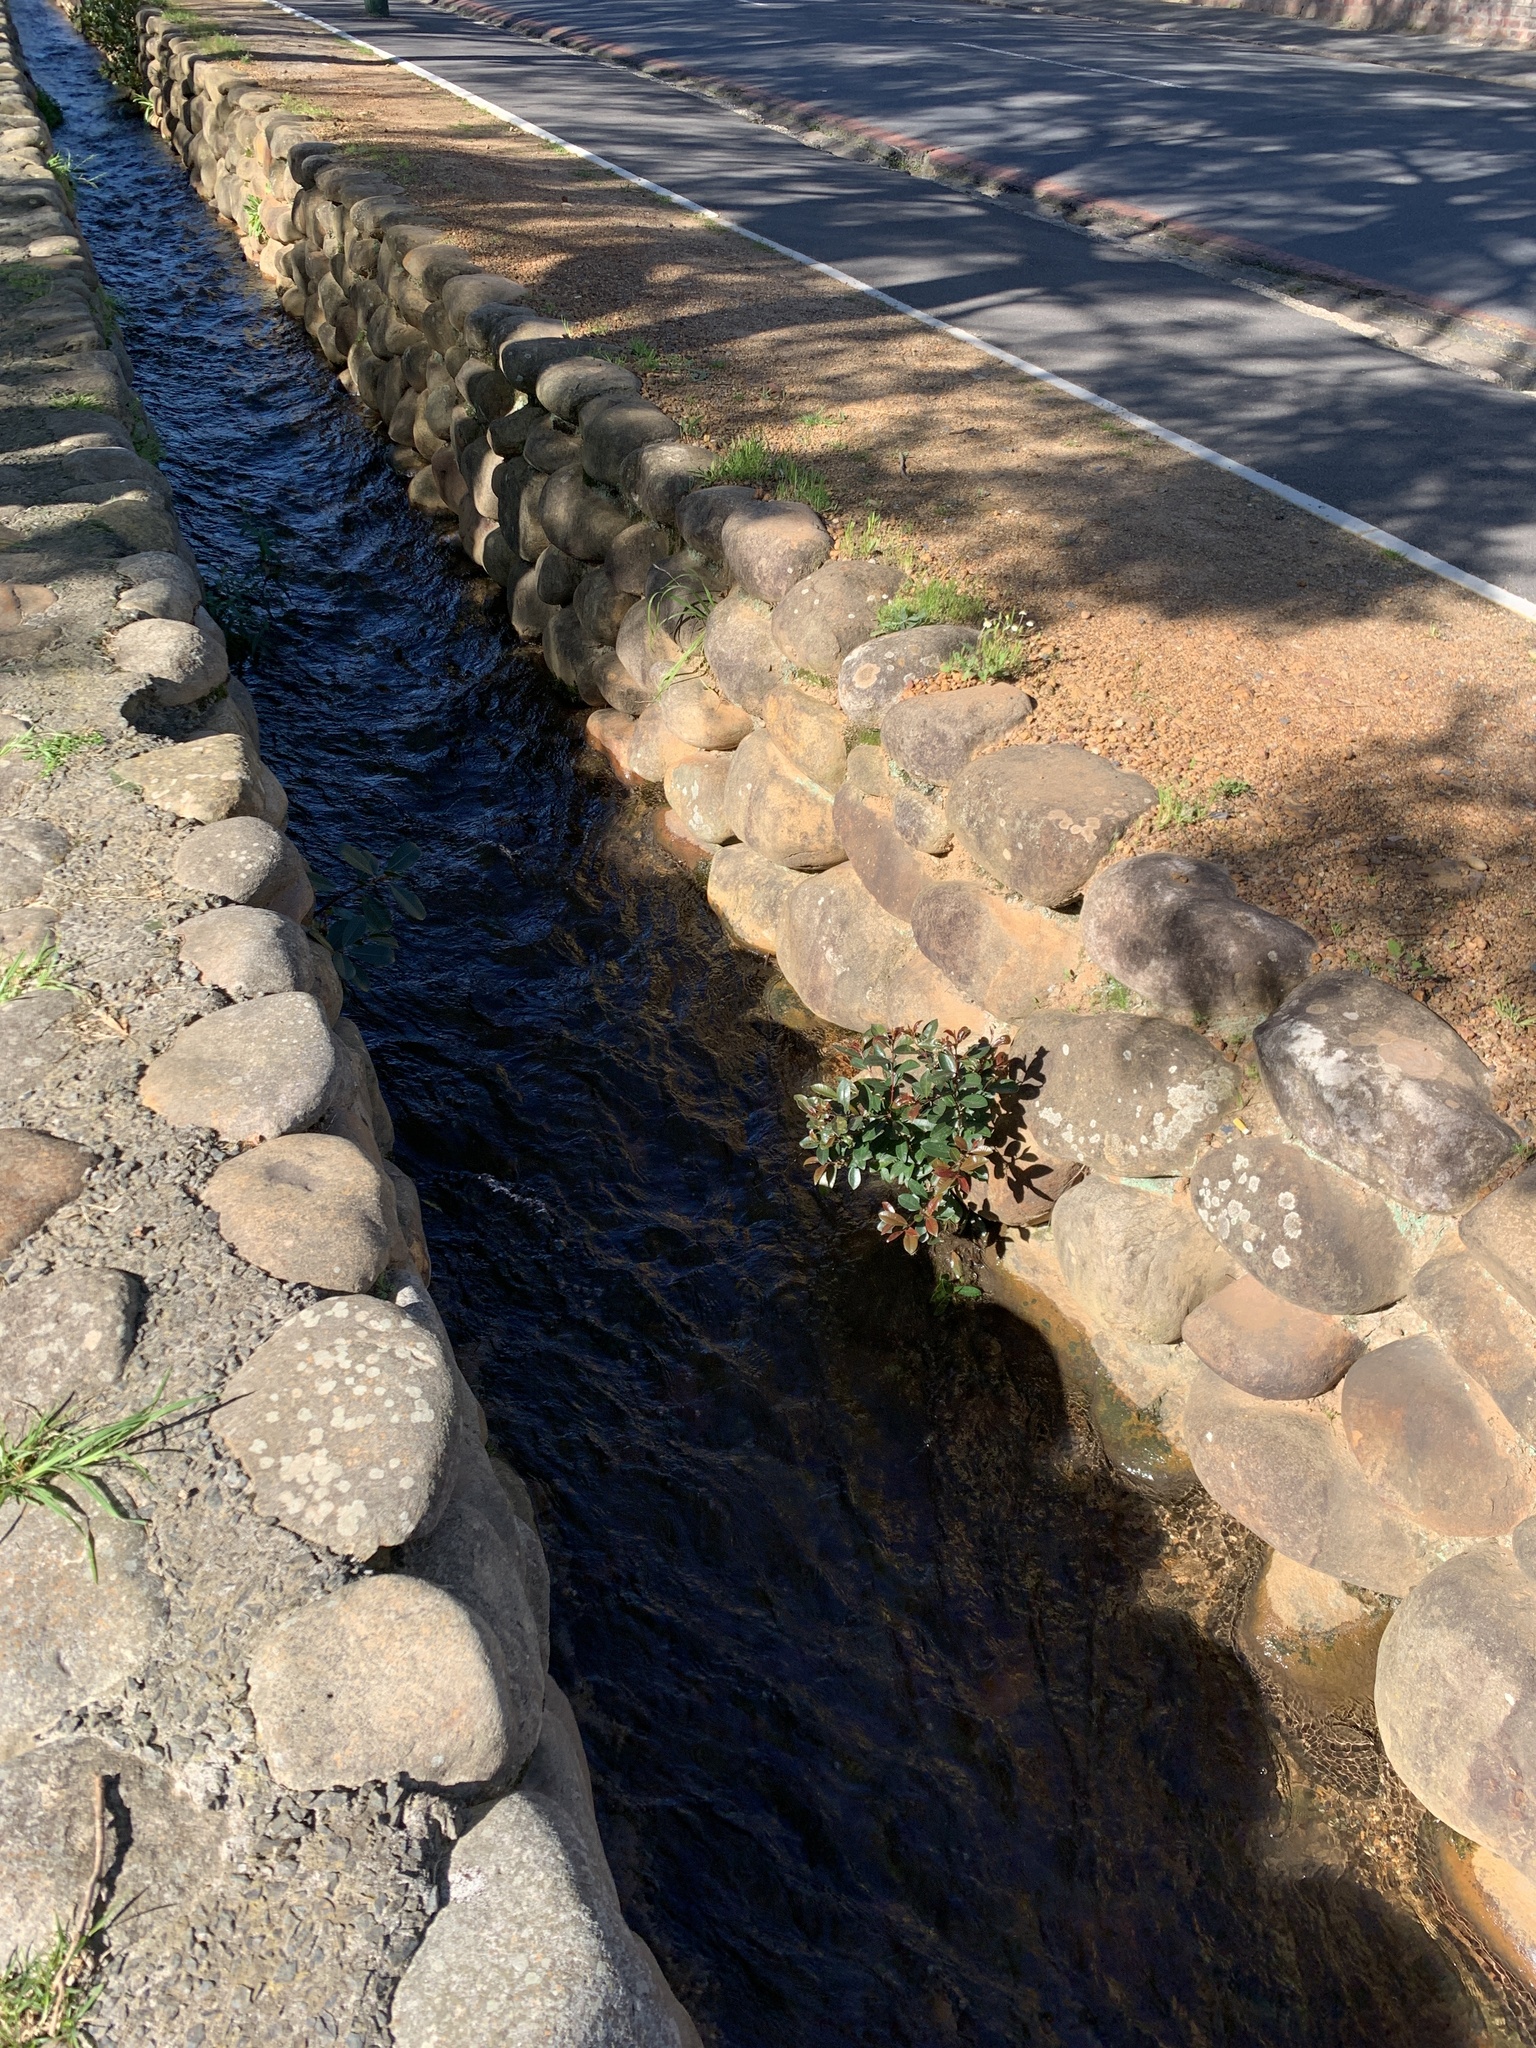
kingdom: Plantae
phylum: Tracheophyta
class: Magnoliopsida
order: Myrtales
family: Myrtaceae
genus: Syzygium
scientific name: Syzygium australe
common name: Australian brush-cherry
